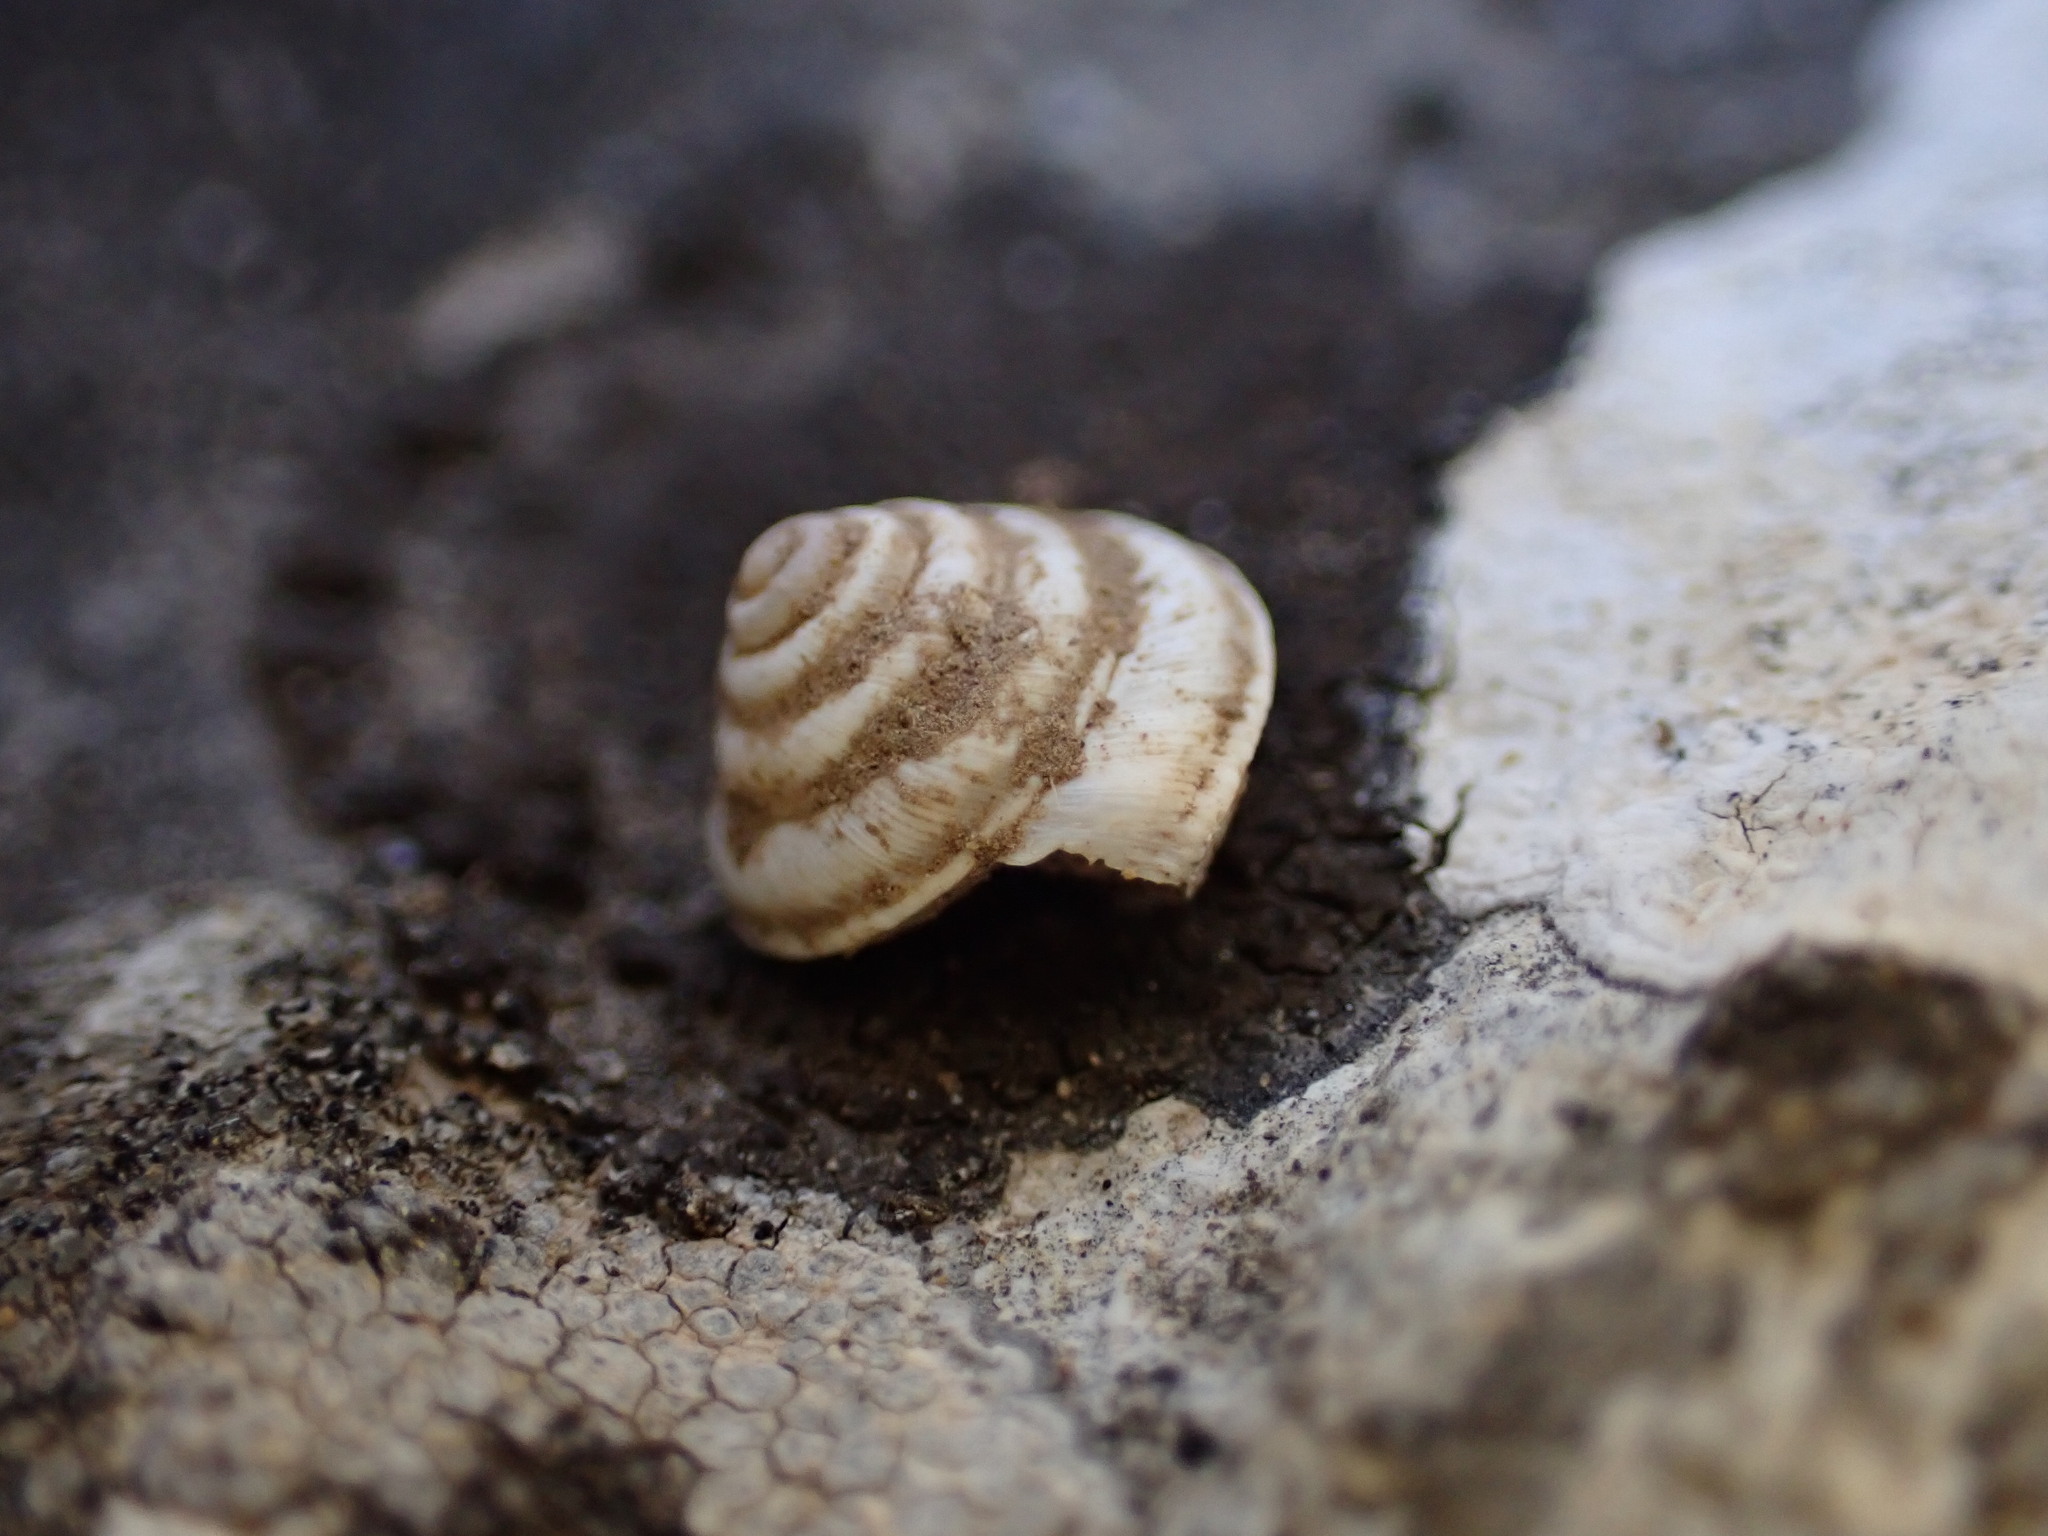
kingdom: Animalia
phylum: Mollusca
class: Gastropoda
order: Stylommatophora
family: Geomitridae
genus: Trochoidea
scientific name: Trochoidea elegans
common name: Elegant helicellid
